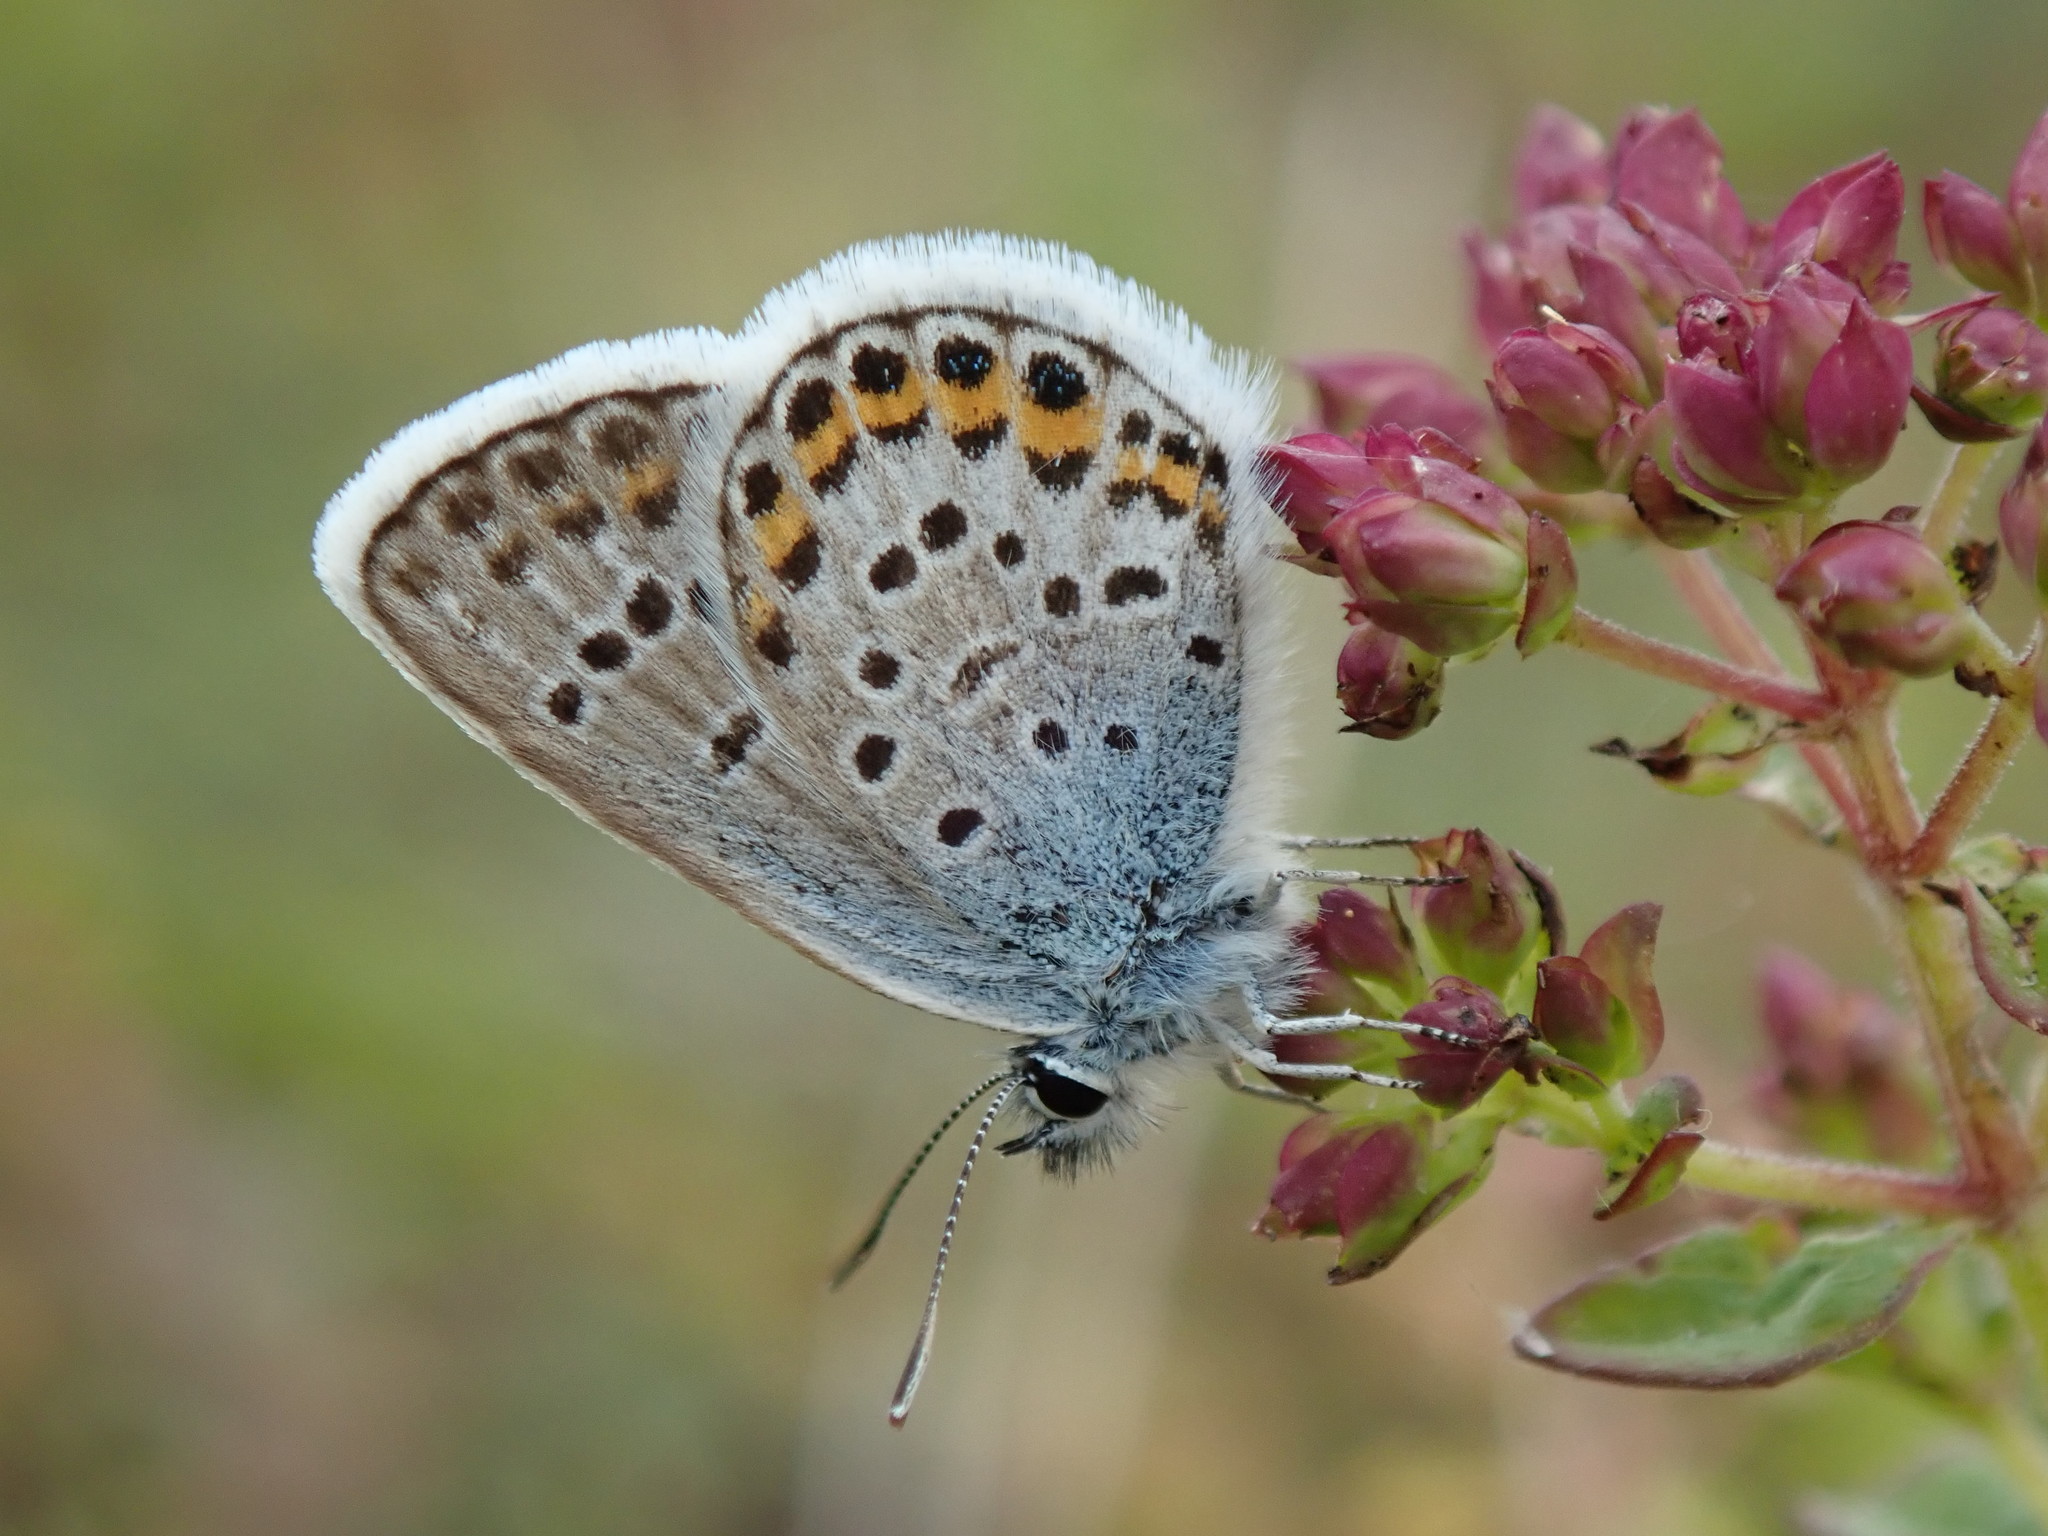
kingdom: Animalia
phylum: Arthropoda
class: Insecta
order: Lepidoptera
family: Lycaenidae
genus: Plebejus
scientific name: Plebejus argus
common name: Silver-studded blue
